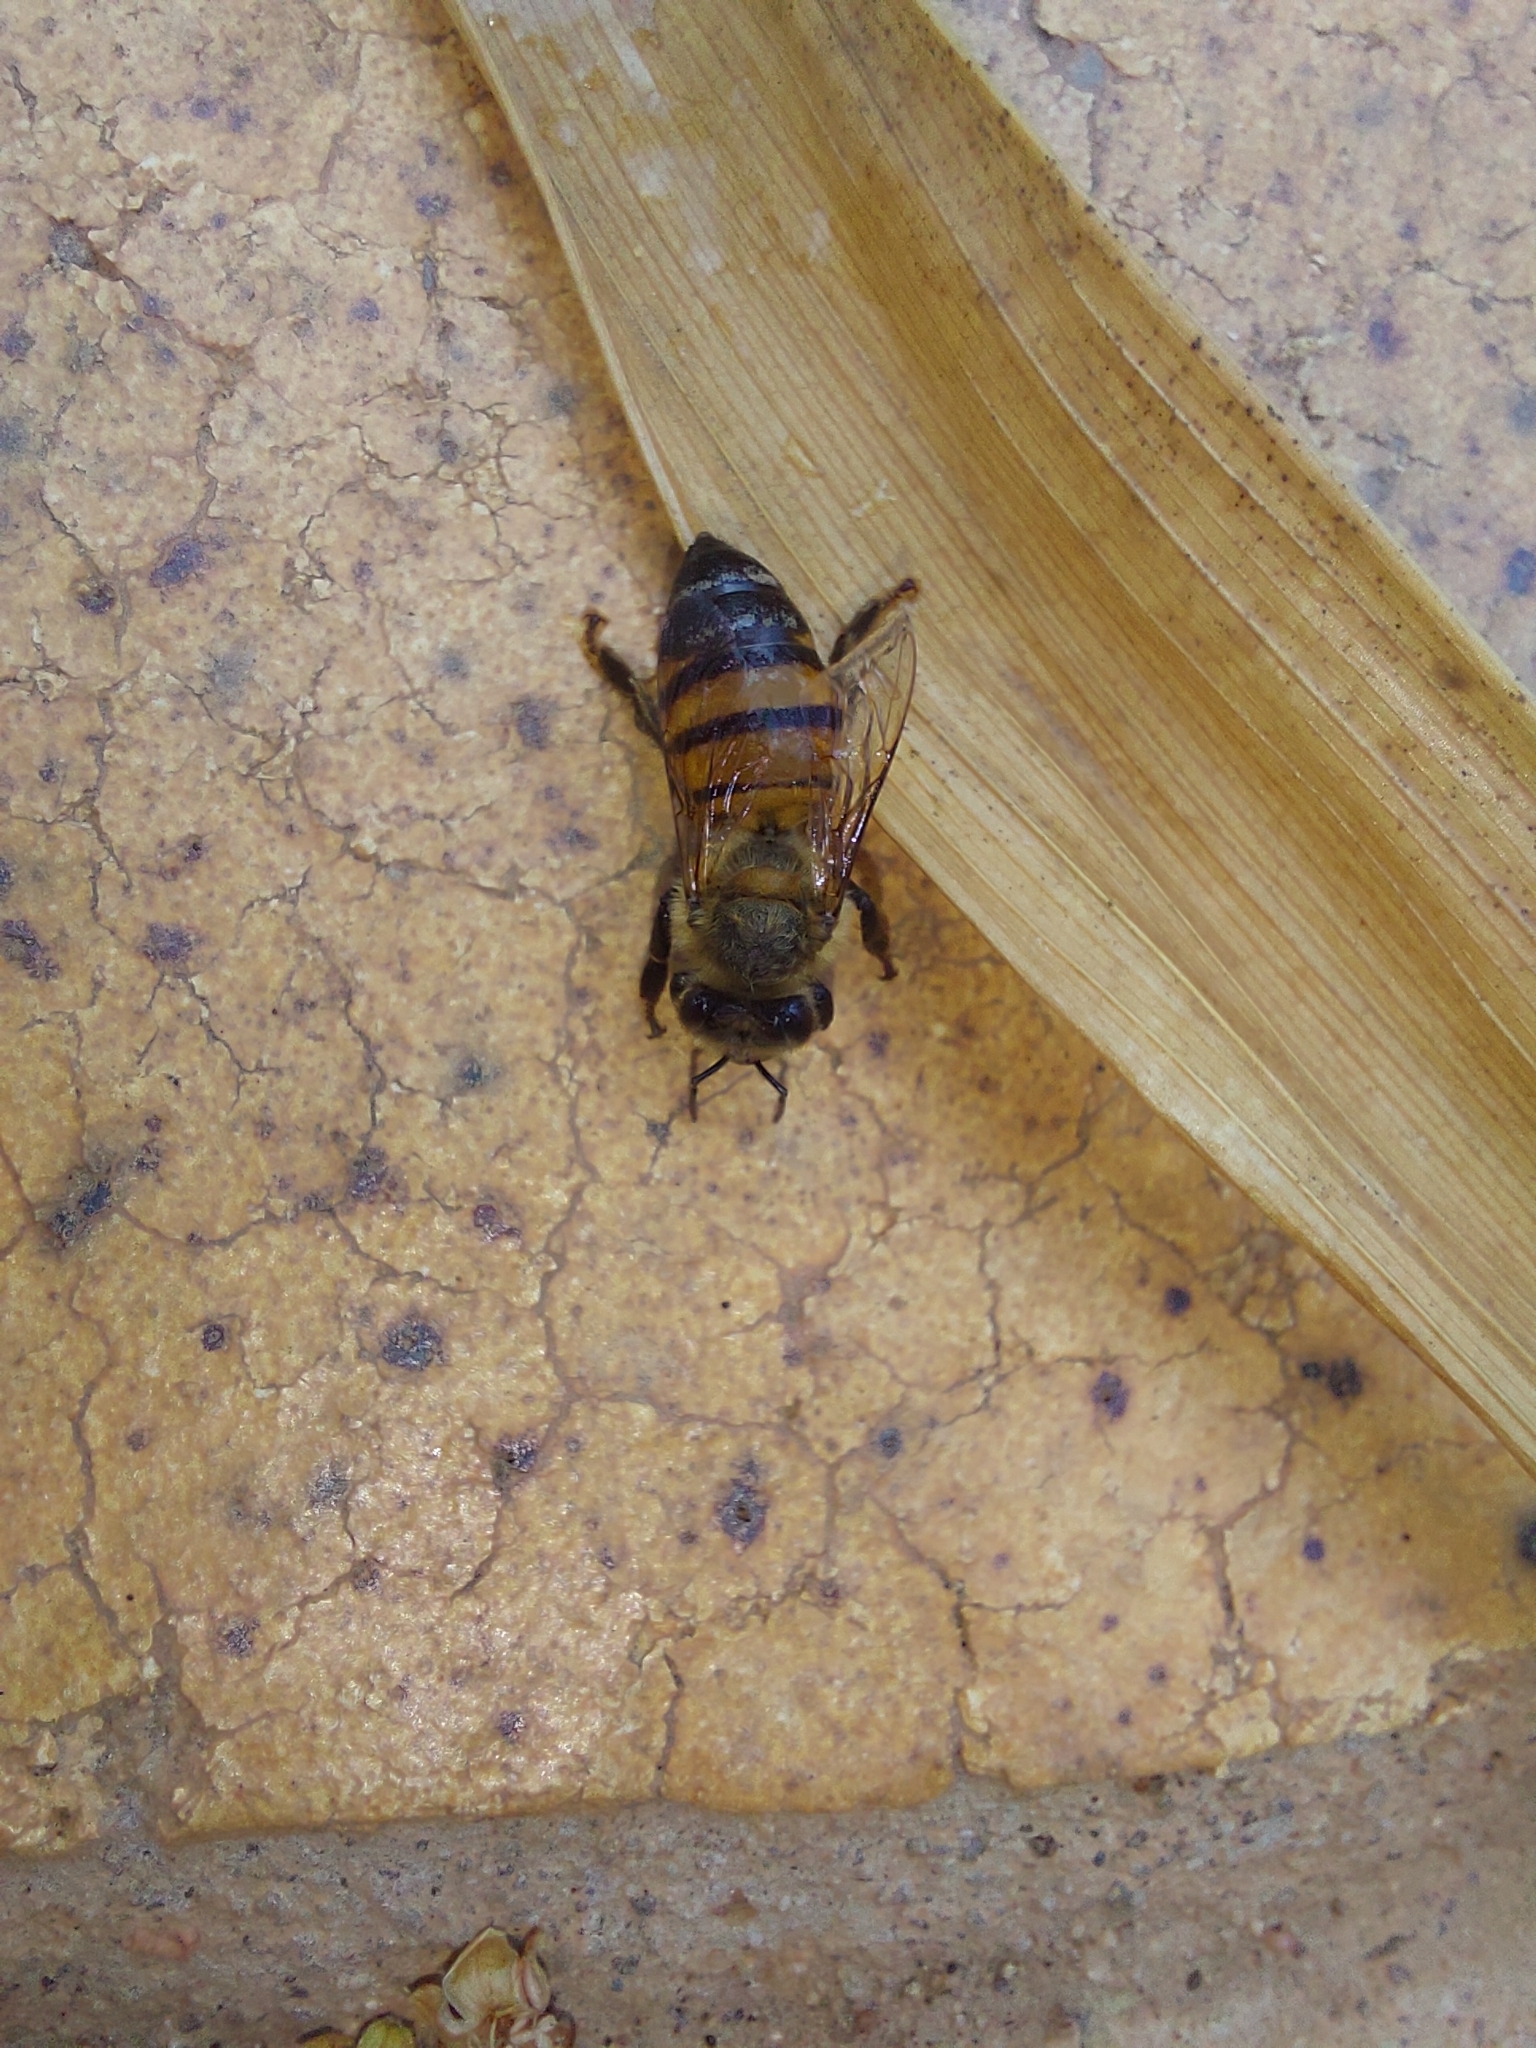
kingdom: Animalia
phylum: Arthropoda
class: Insecta
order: Hymenoptera
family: Apidae
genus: Apis
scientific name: Apis mellifera
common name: Honey bee
